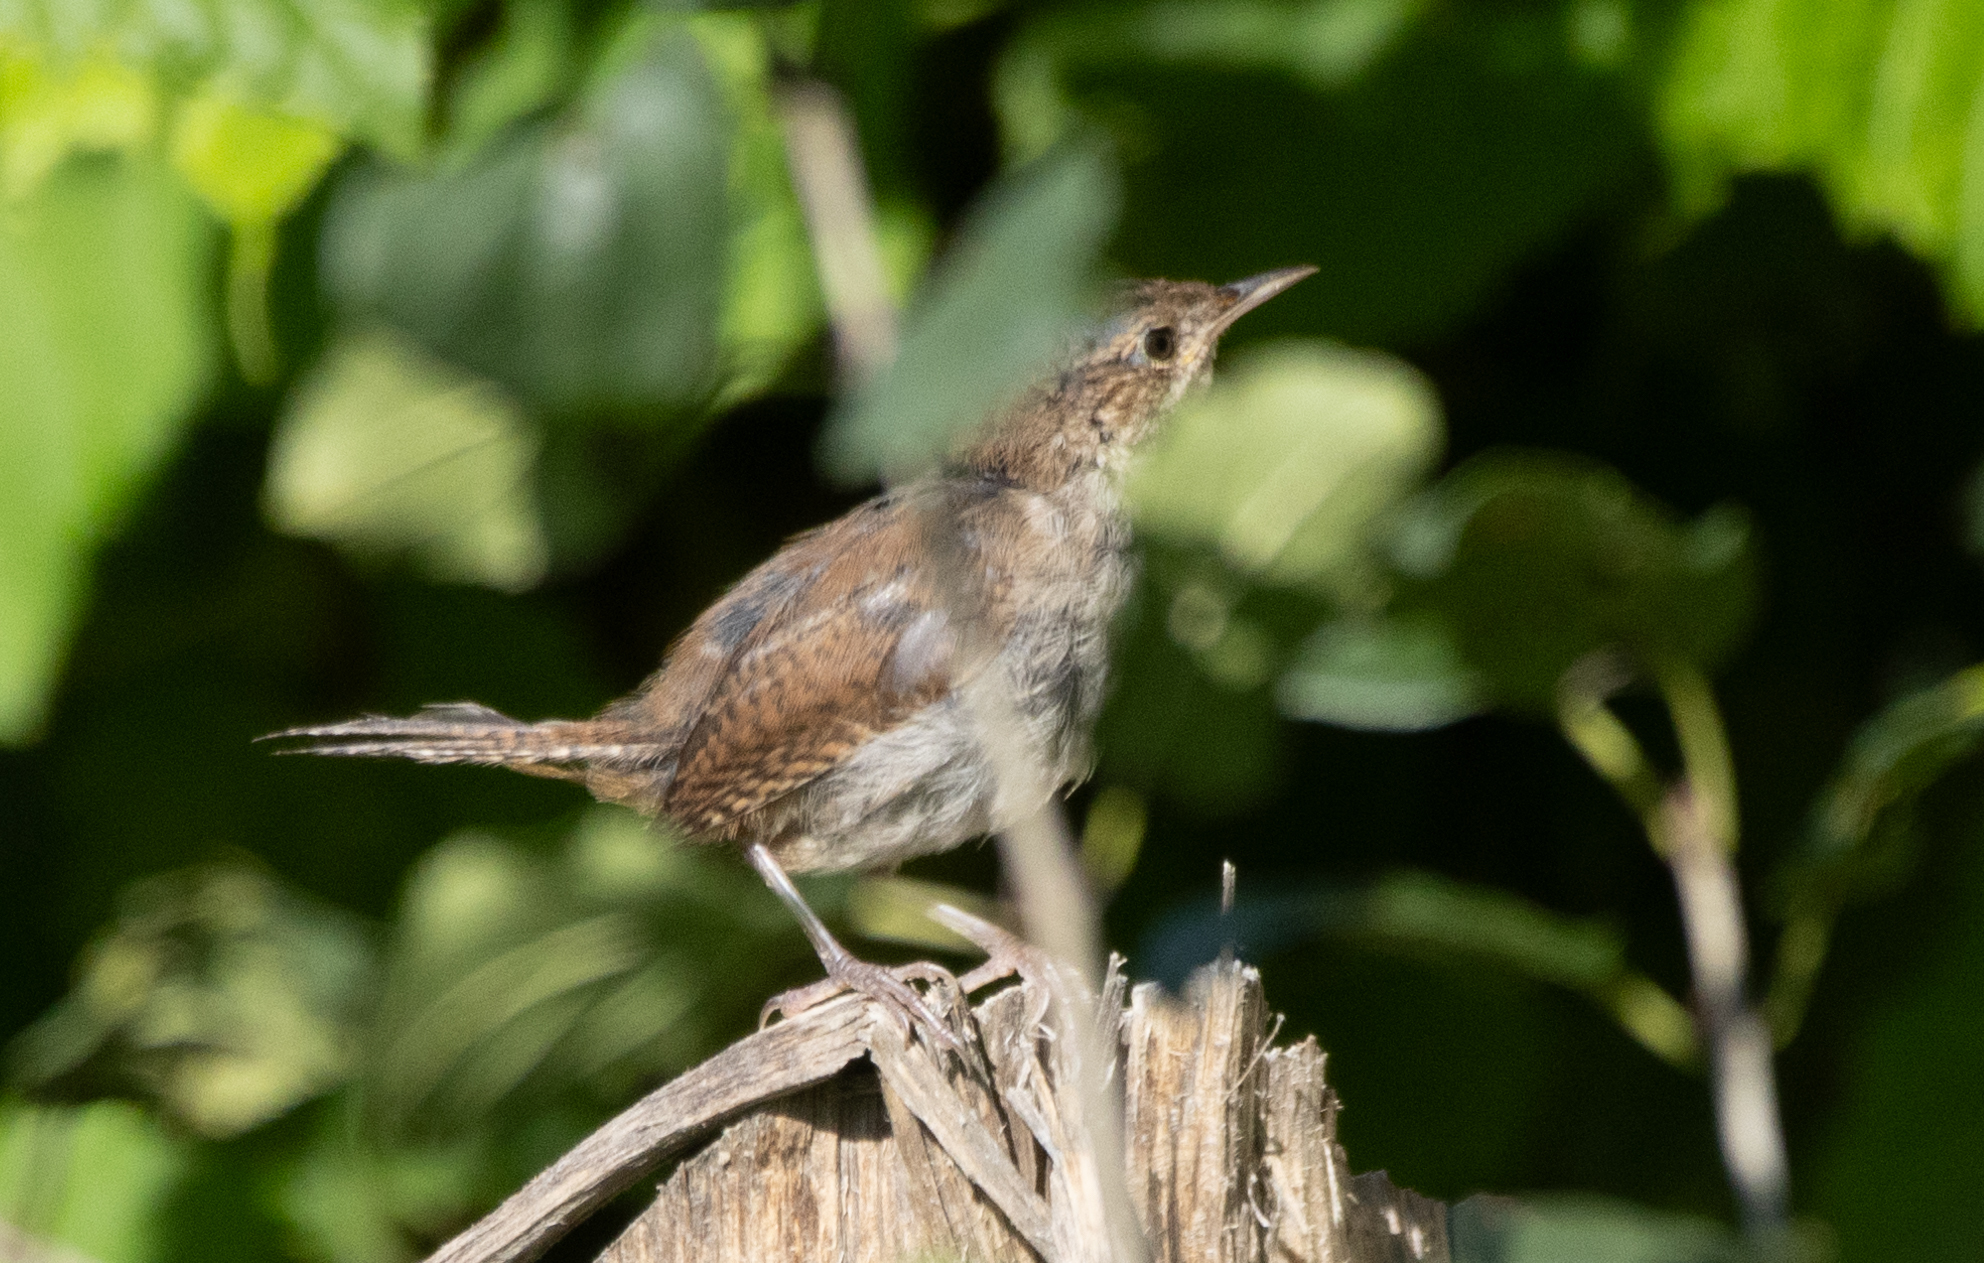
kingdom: Animalia
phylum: Chordata
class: Aves
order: Passeriformes
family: Troglodytidae
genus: Troglodytes
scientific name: Troglodytes aedon
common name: House wren
